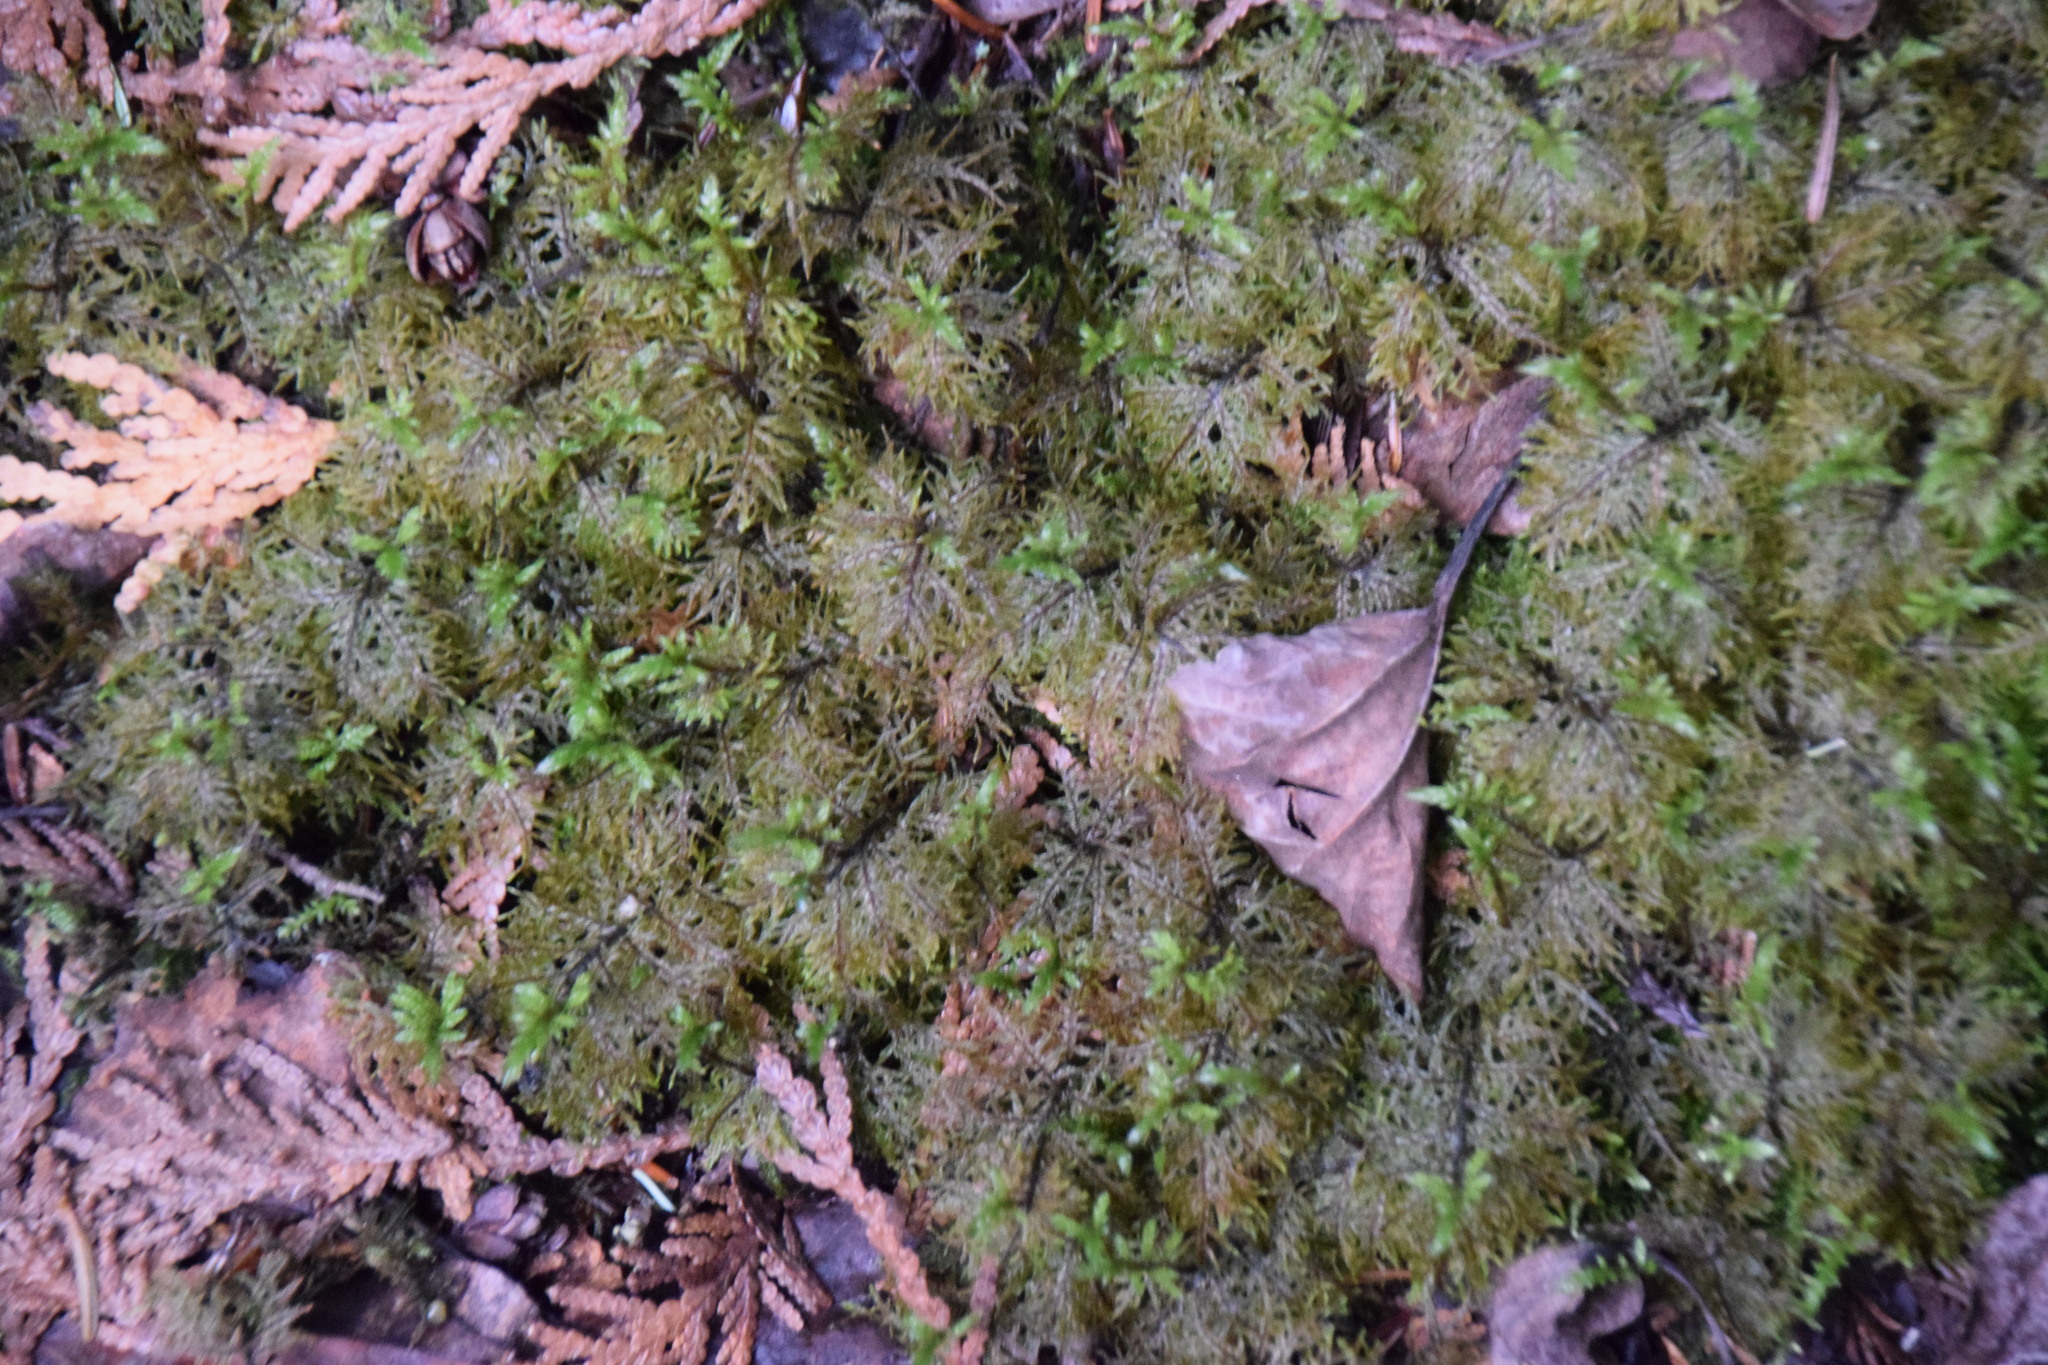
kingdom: Plantae
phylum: Bryophyta
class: Bryopsida
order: Hypnales
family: Hylocomiaceae
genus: Hylocomium
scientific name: Hylocomium splendens
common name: Stairstep moss
